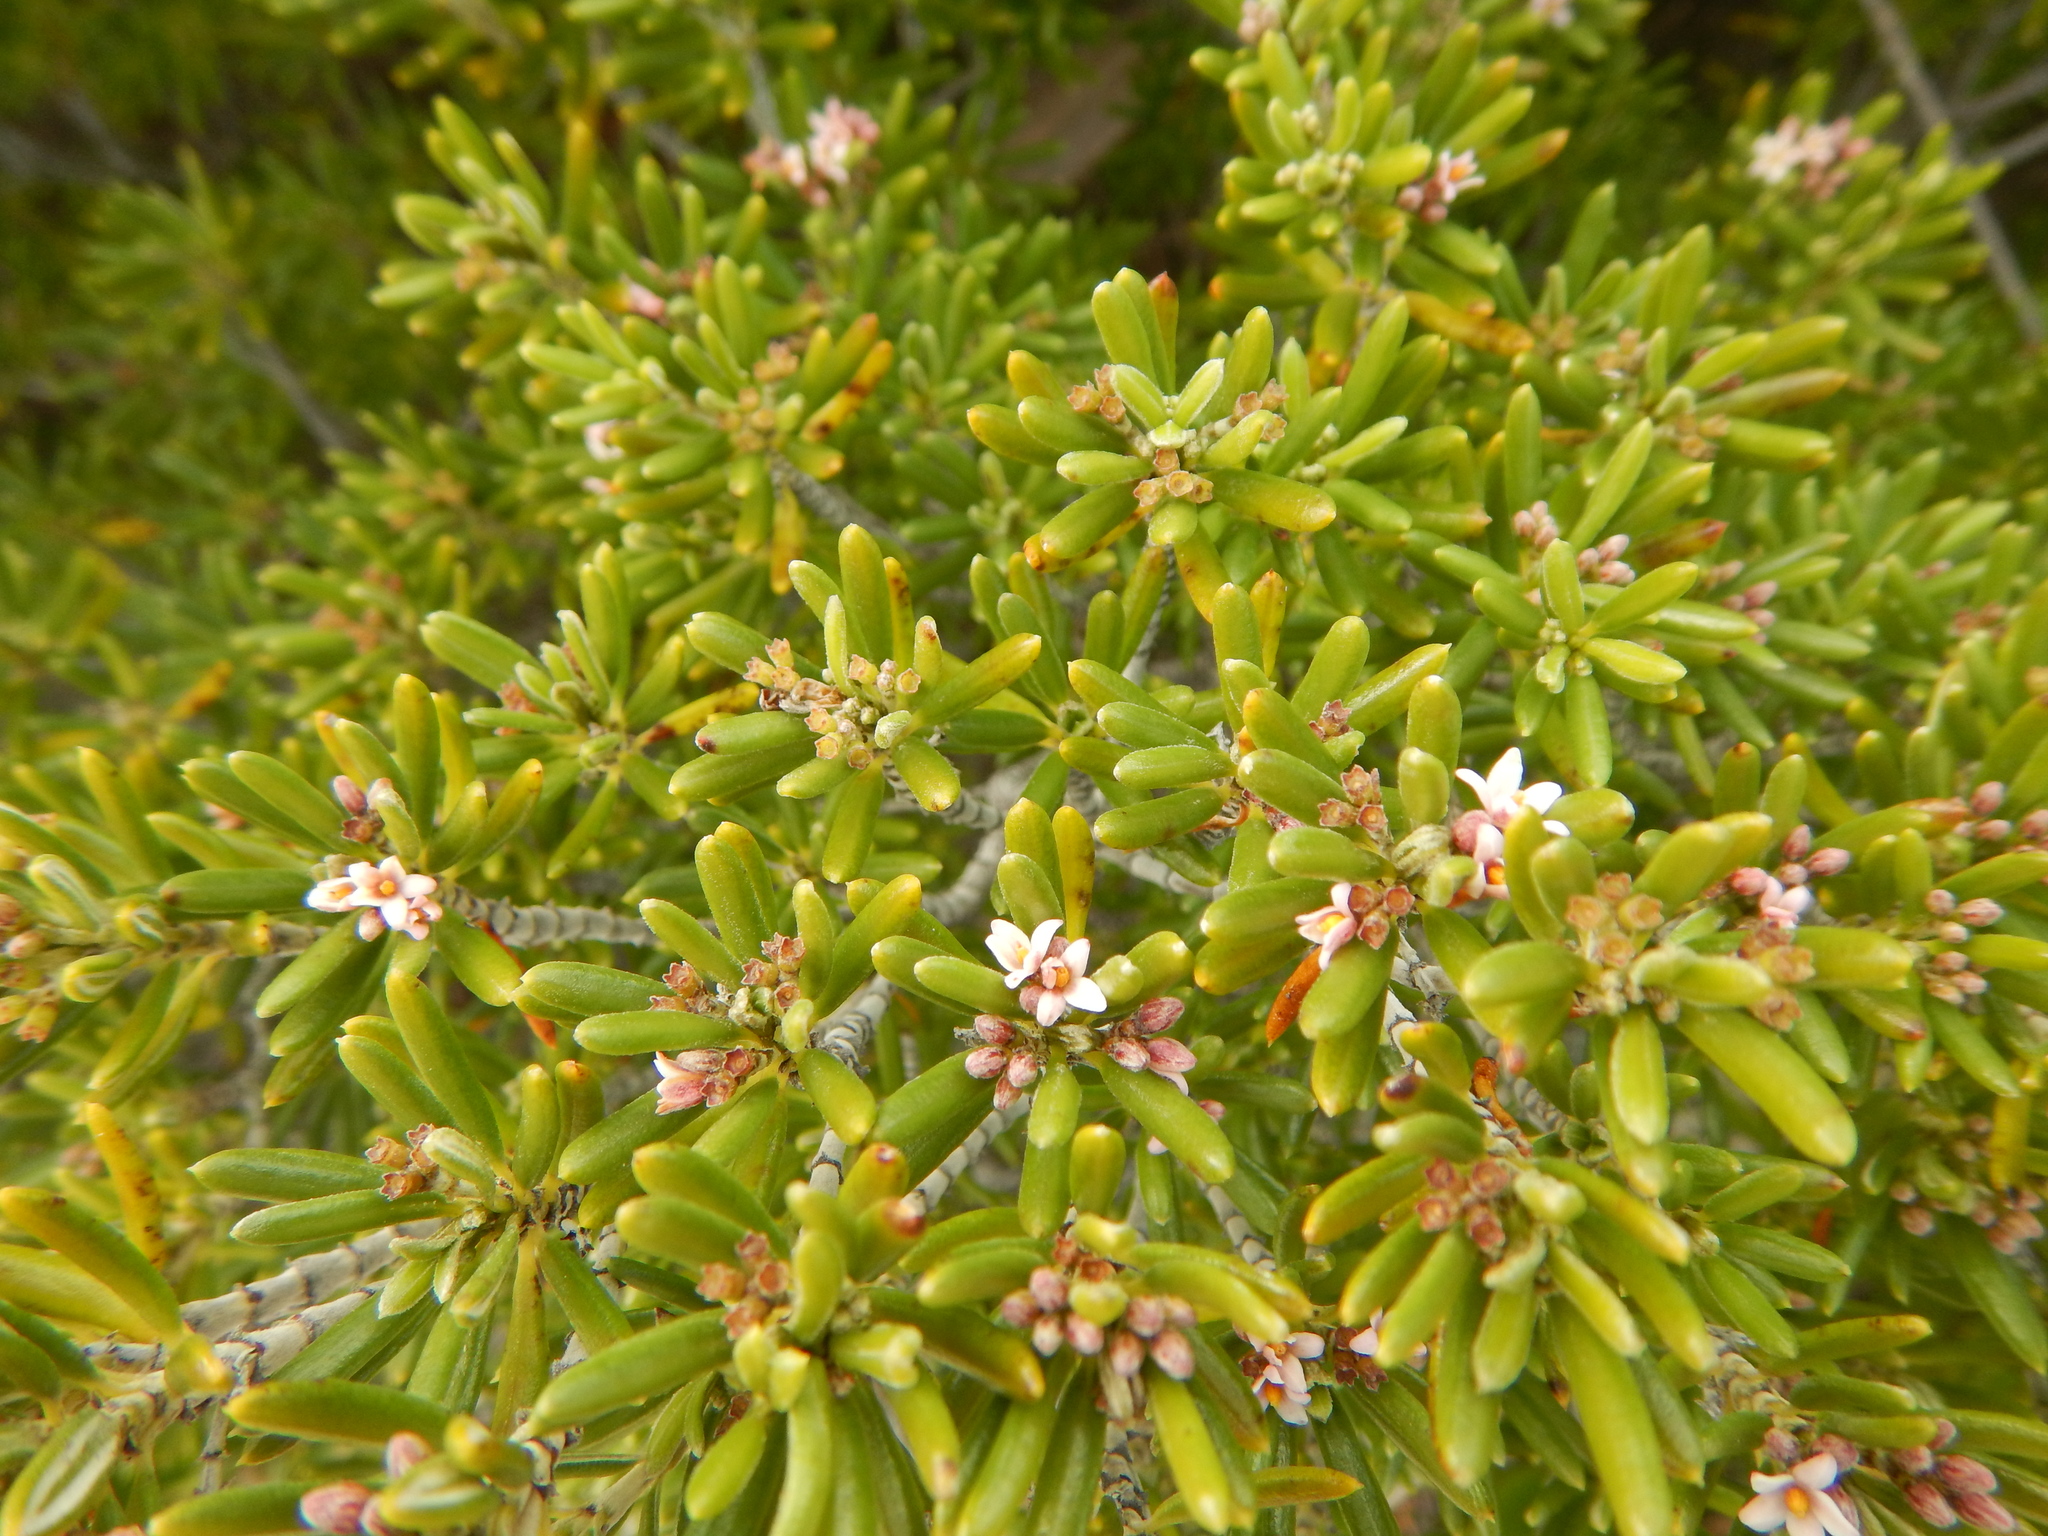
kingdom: Plantae
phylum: Tracheophyta
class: Magnoliopsida
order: Gentianales
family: Rubiaceae
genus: Strumpfia
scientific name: Strumpfia maritima
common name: Pride-of-big pine
